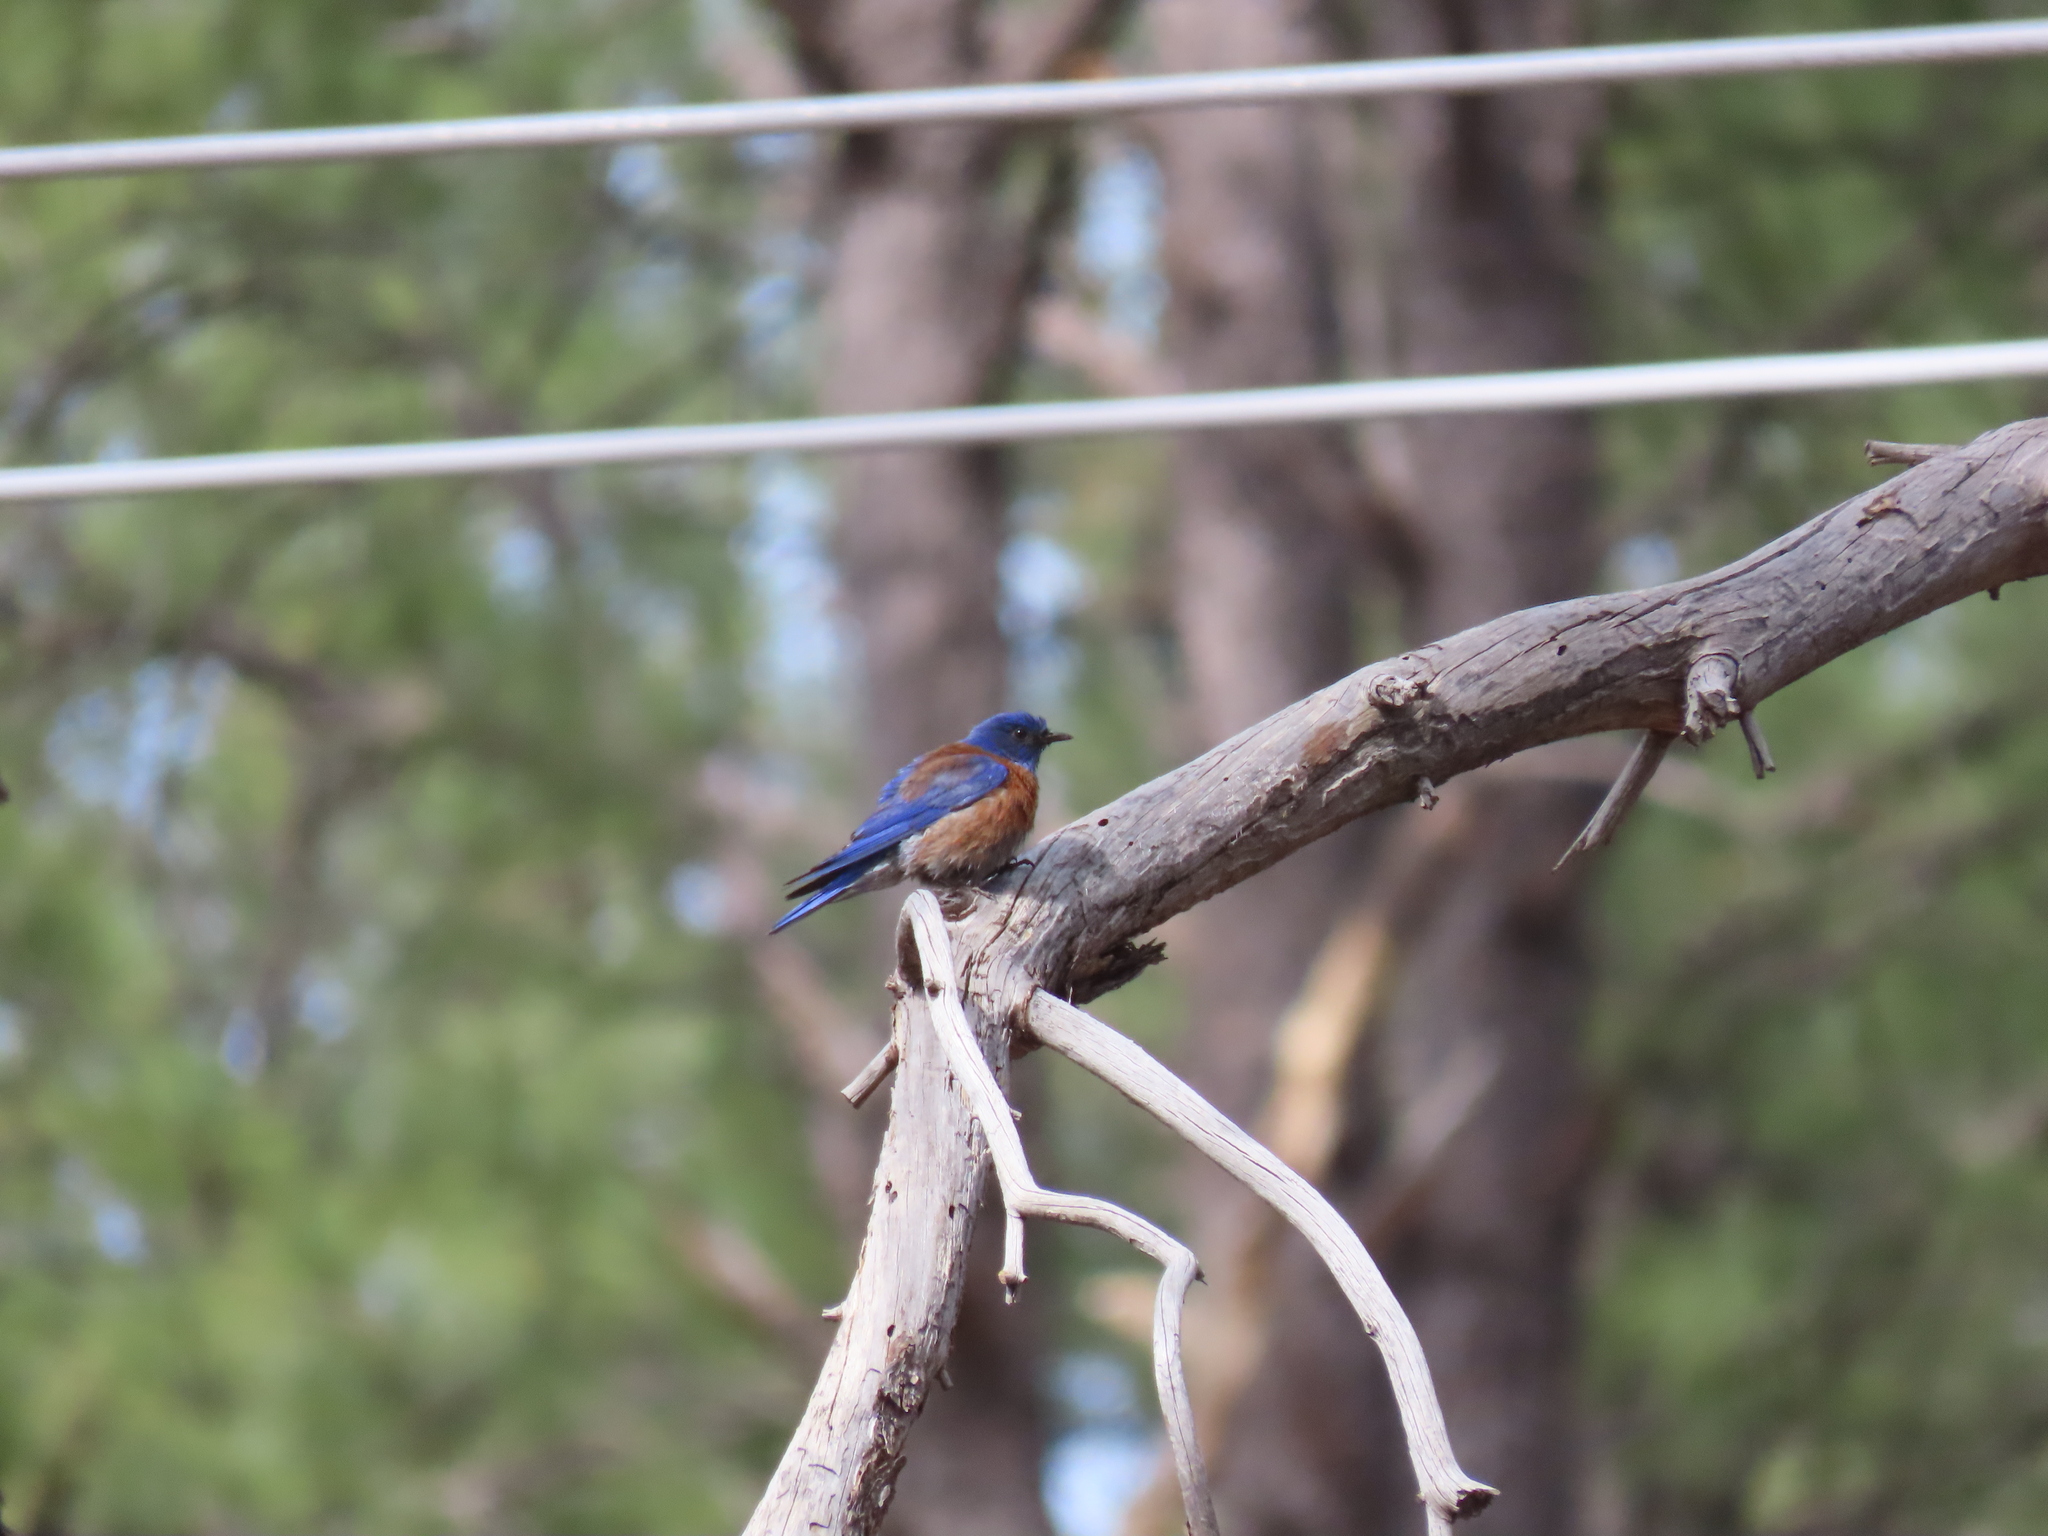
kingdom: Animalia
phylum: Chordata
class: Aves
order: Passeriformes
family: Turdidae
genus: Sialia
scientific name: Sialia mexicana
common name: Western bluebird
